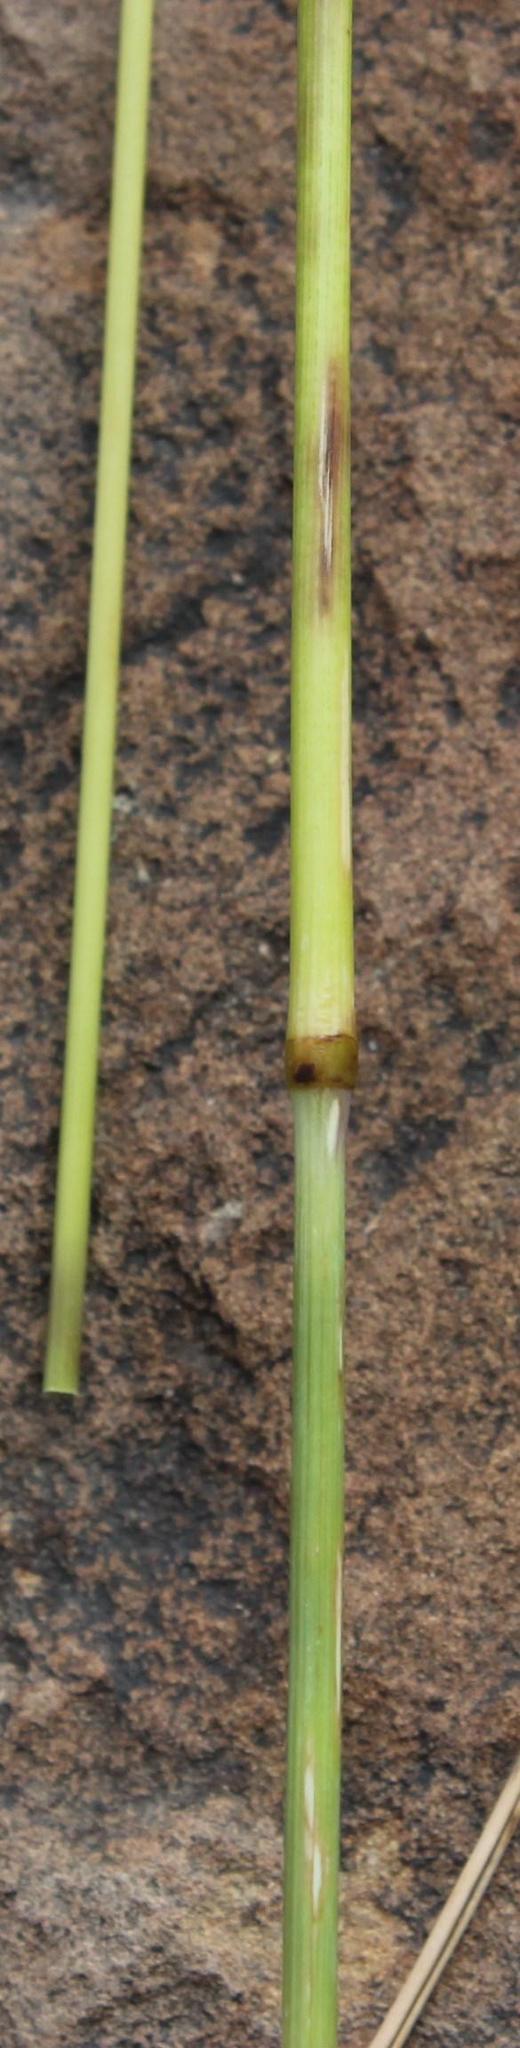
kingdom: Plantae
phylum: Tracheophyta
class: Liliopsida
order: Poales
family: Poaceae
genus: Tenaxia
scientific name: Tenaxia stricta
